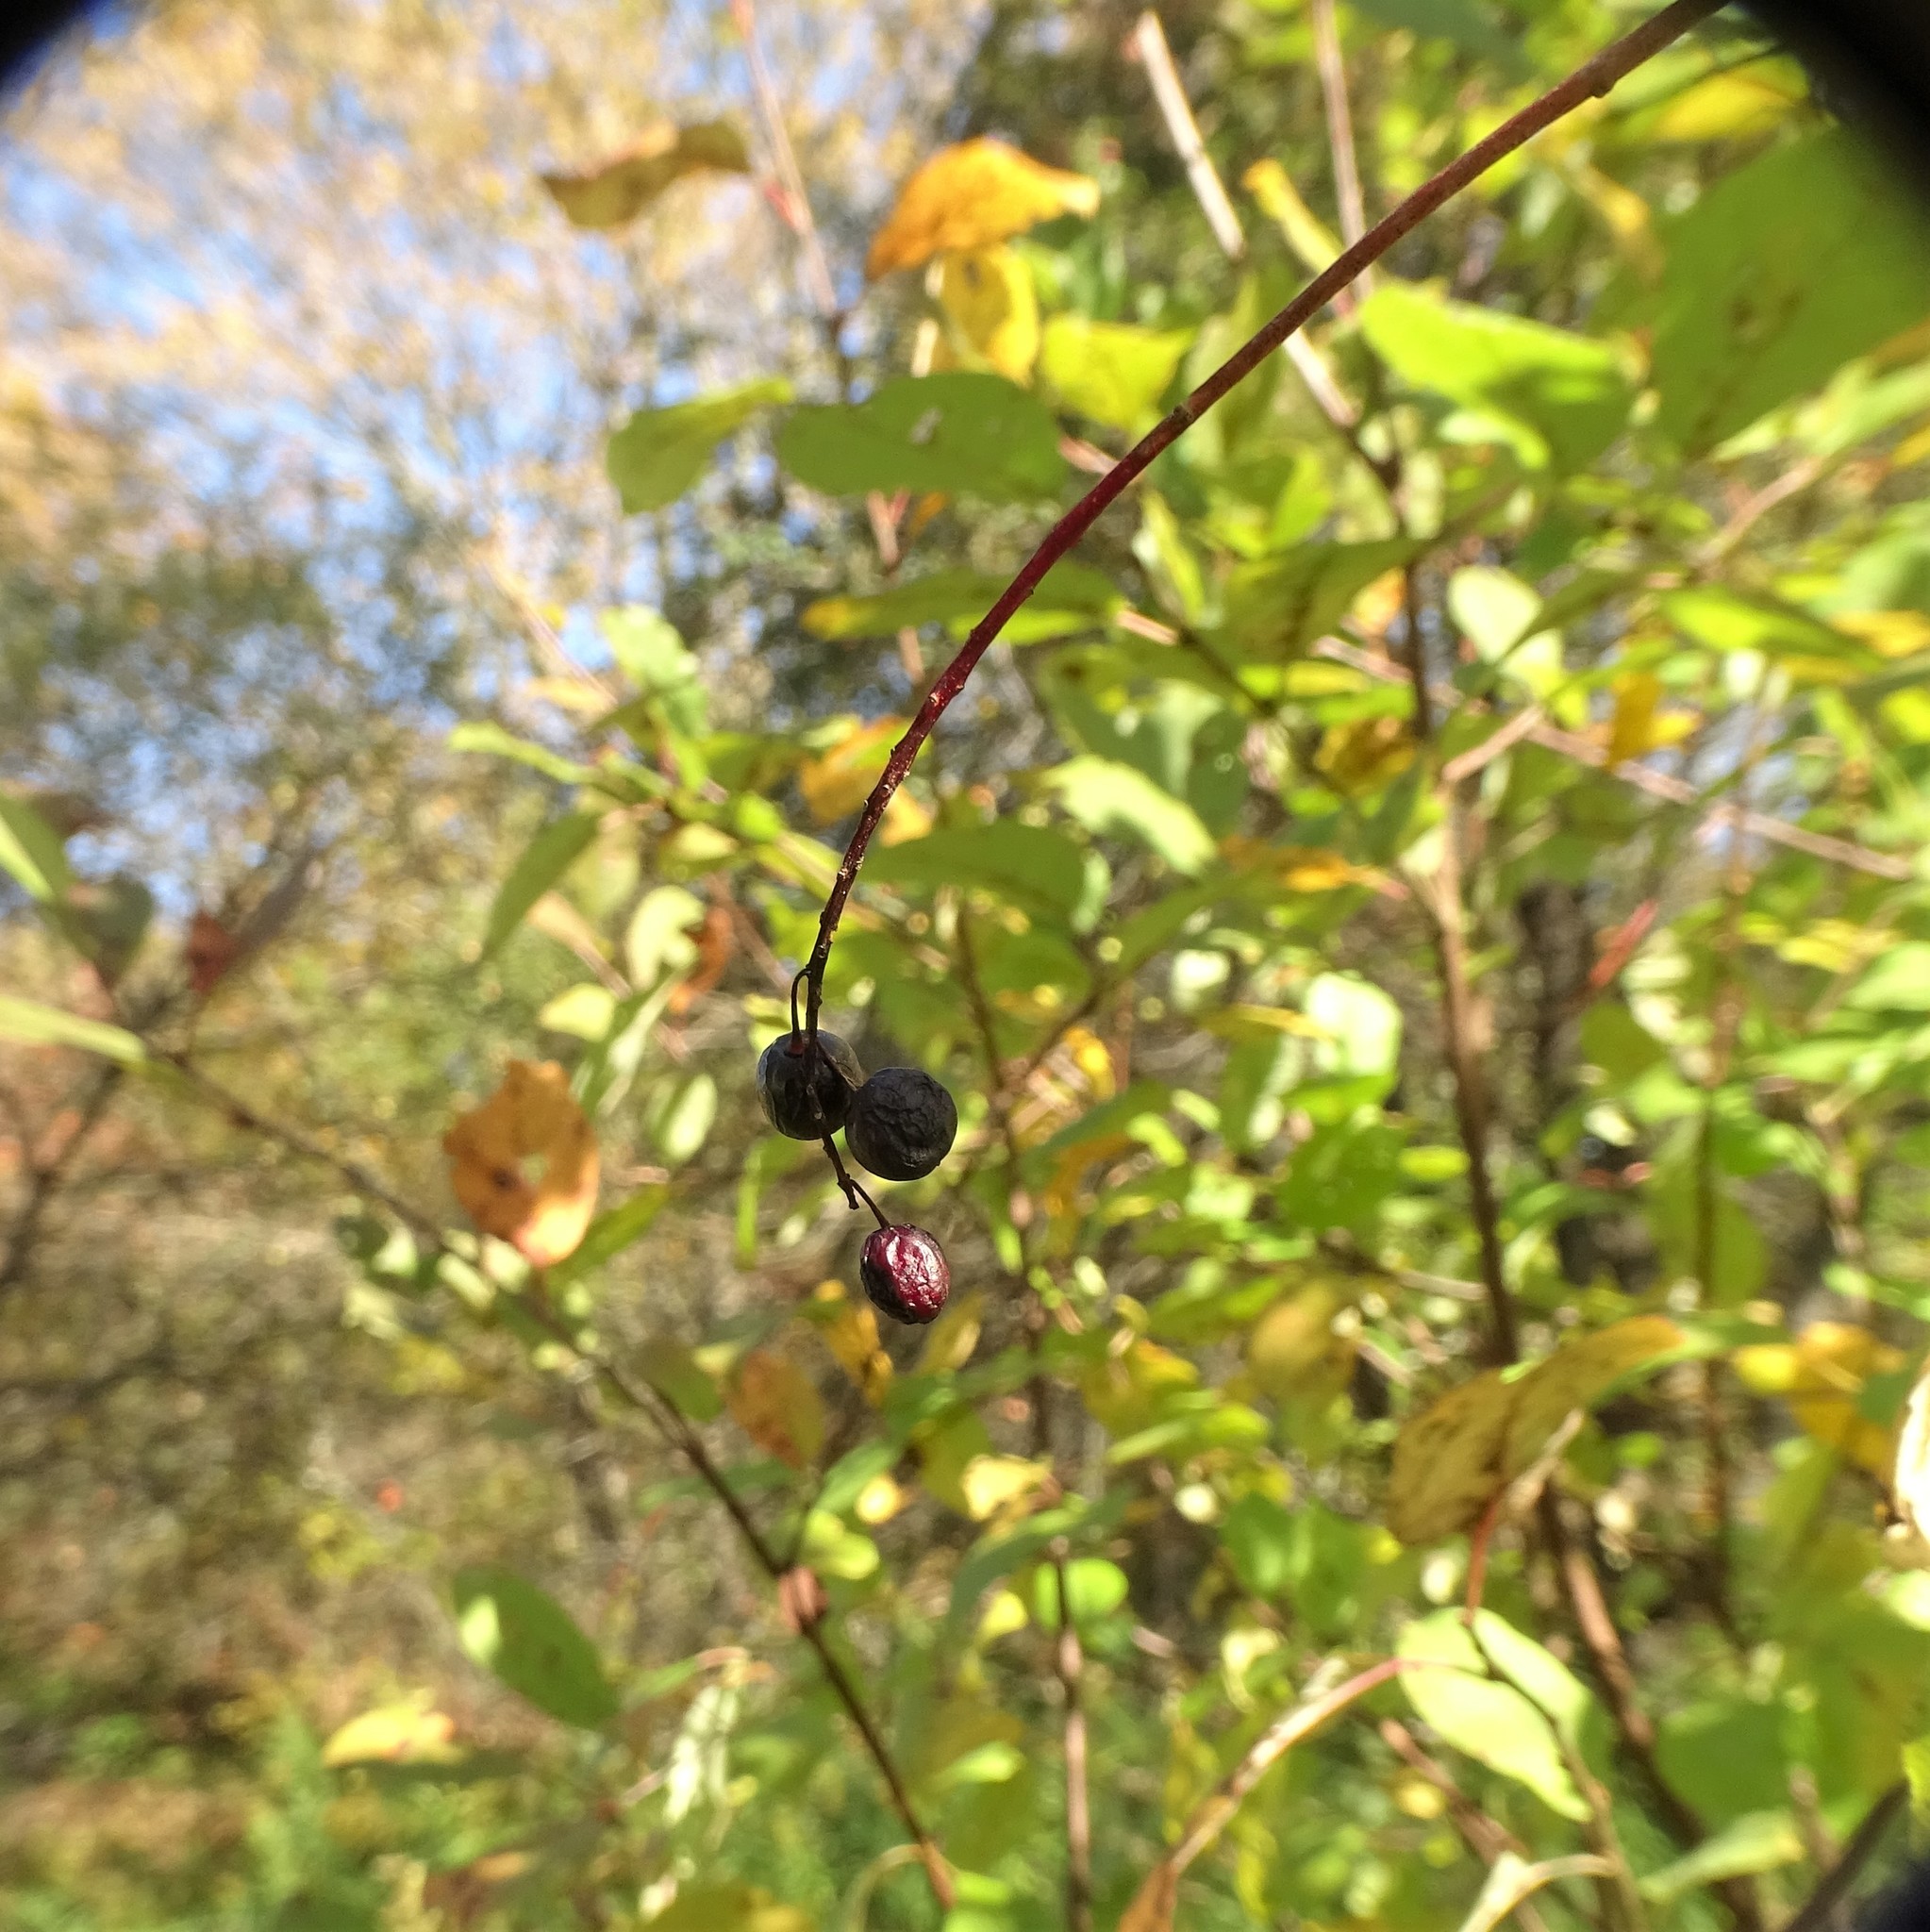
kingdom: Plantae
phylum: Tracheophyta
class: Magnoliopsida
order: Rosales
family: Rosaceae
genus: Prunus
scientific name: Prunus virginiana
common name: Chokecherry
